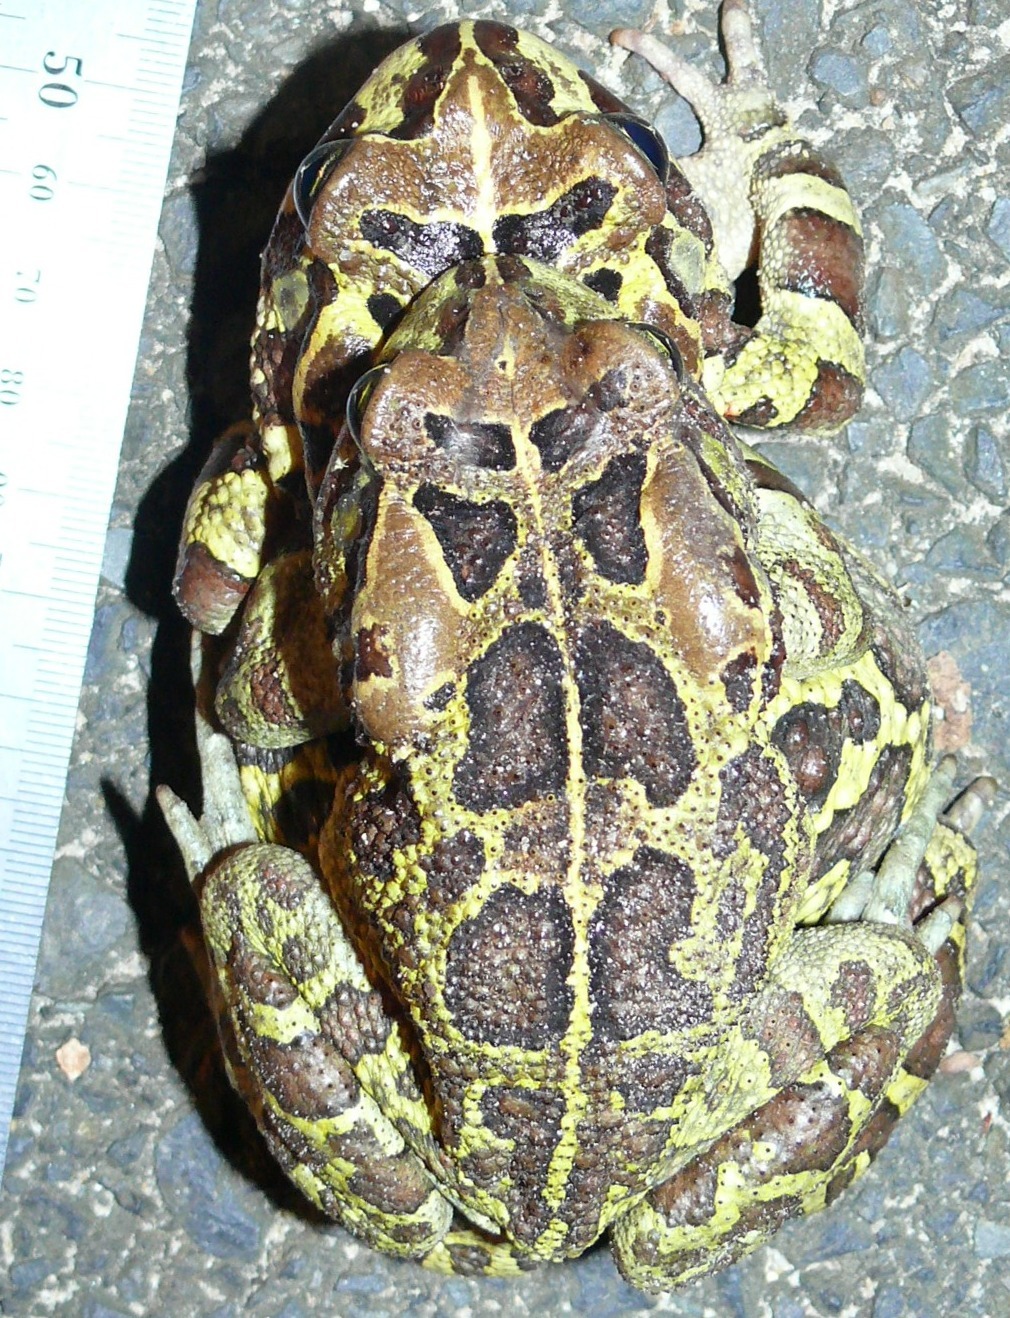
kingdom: Animalia
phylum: Chordata
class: Amphibia
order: Anura
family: Bufonidae
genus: Sclerophrys
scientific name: Sclerophrys pantherina
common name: Panther toad
